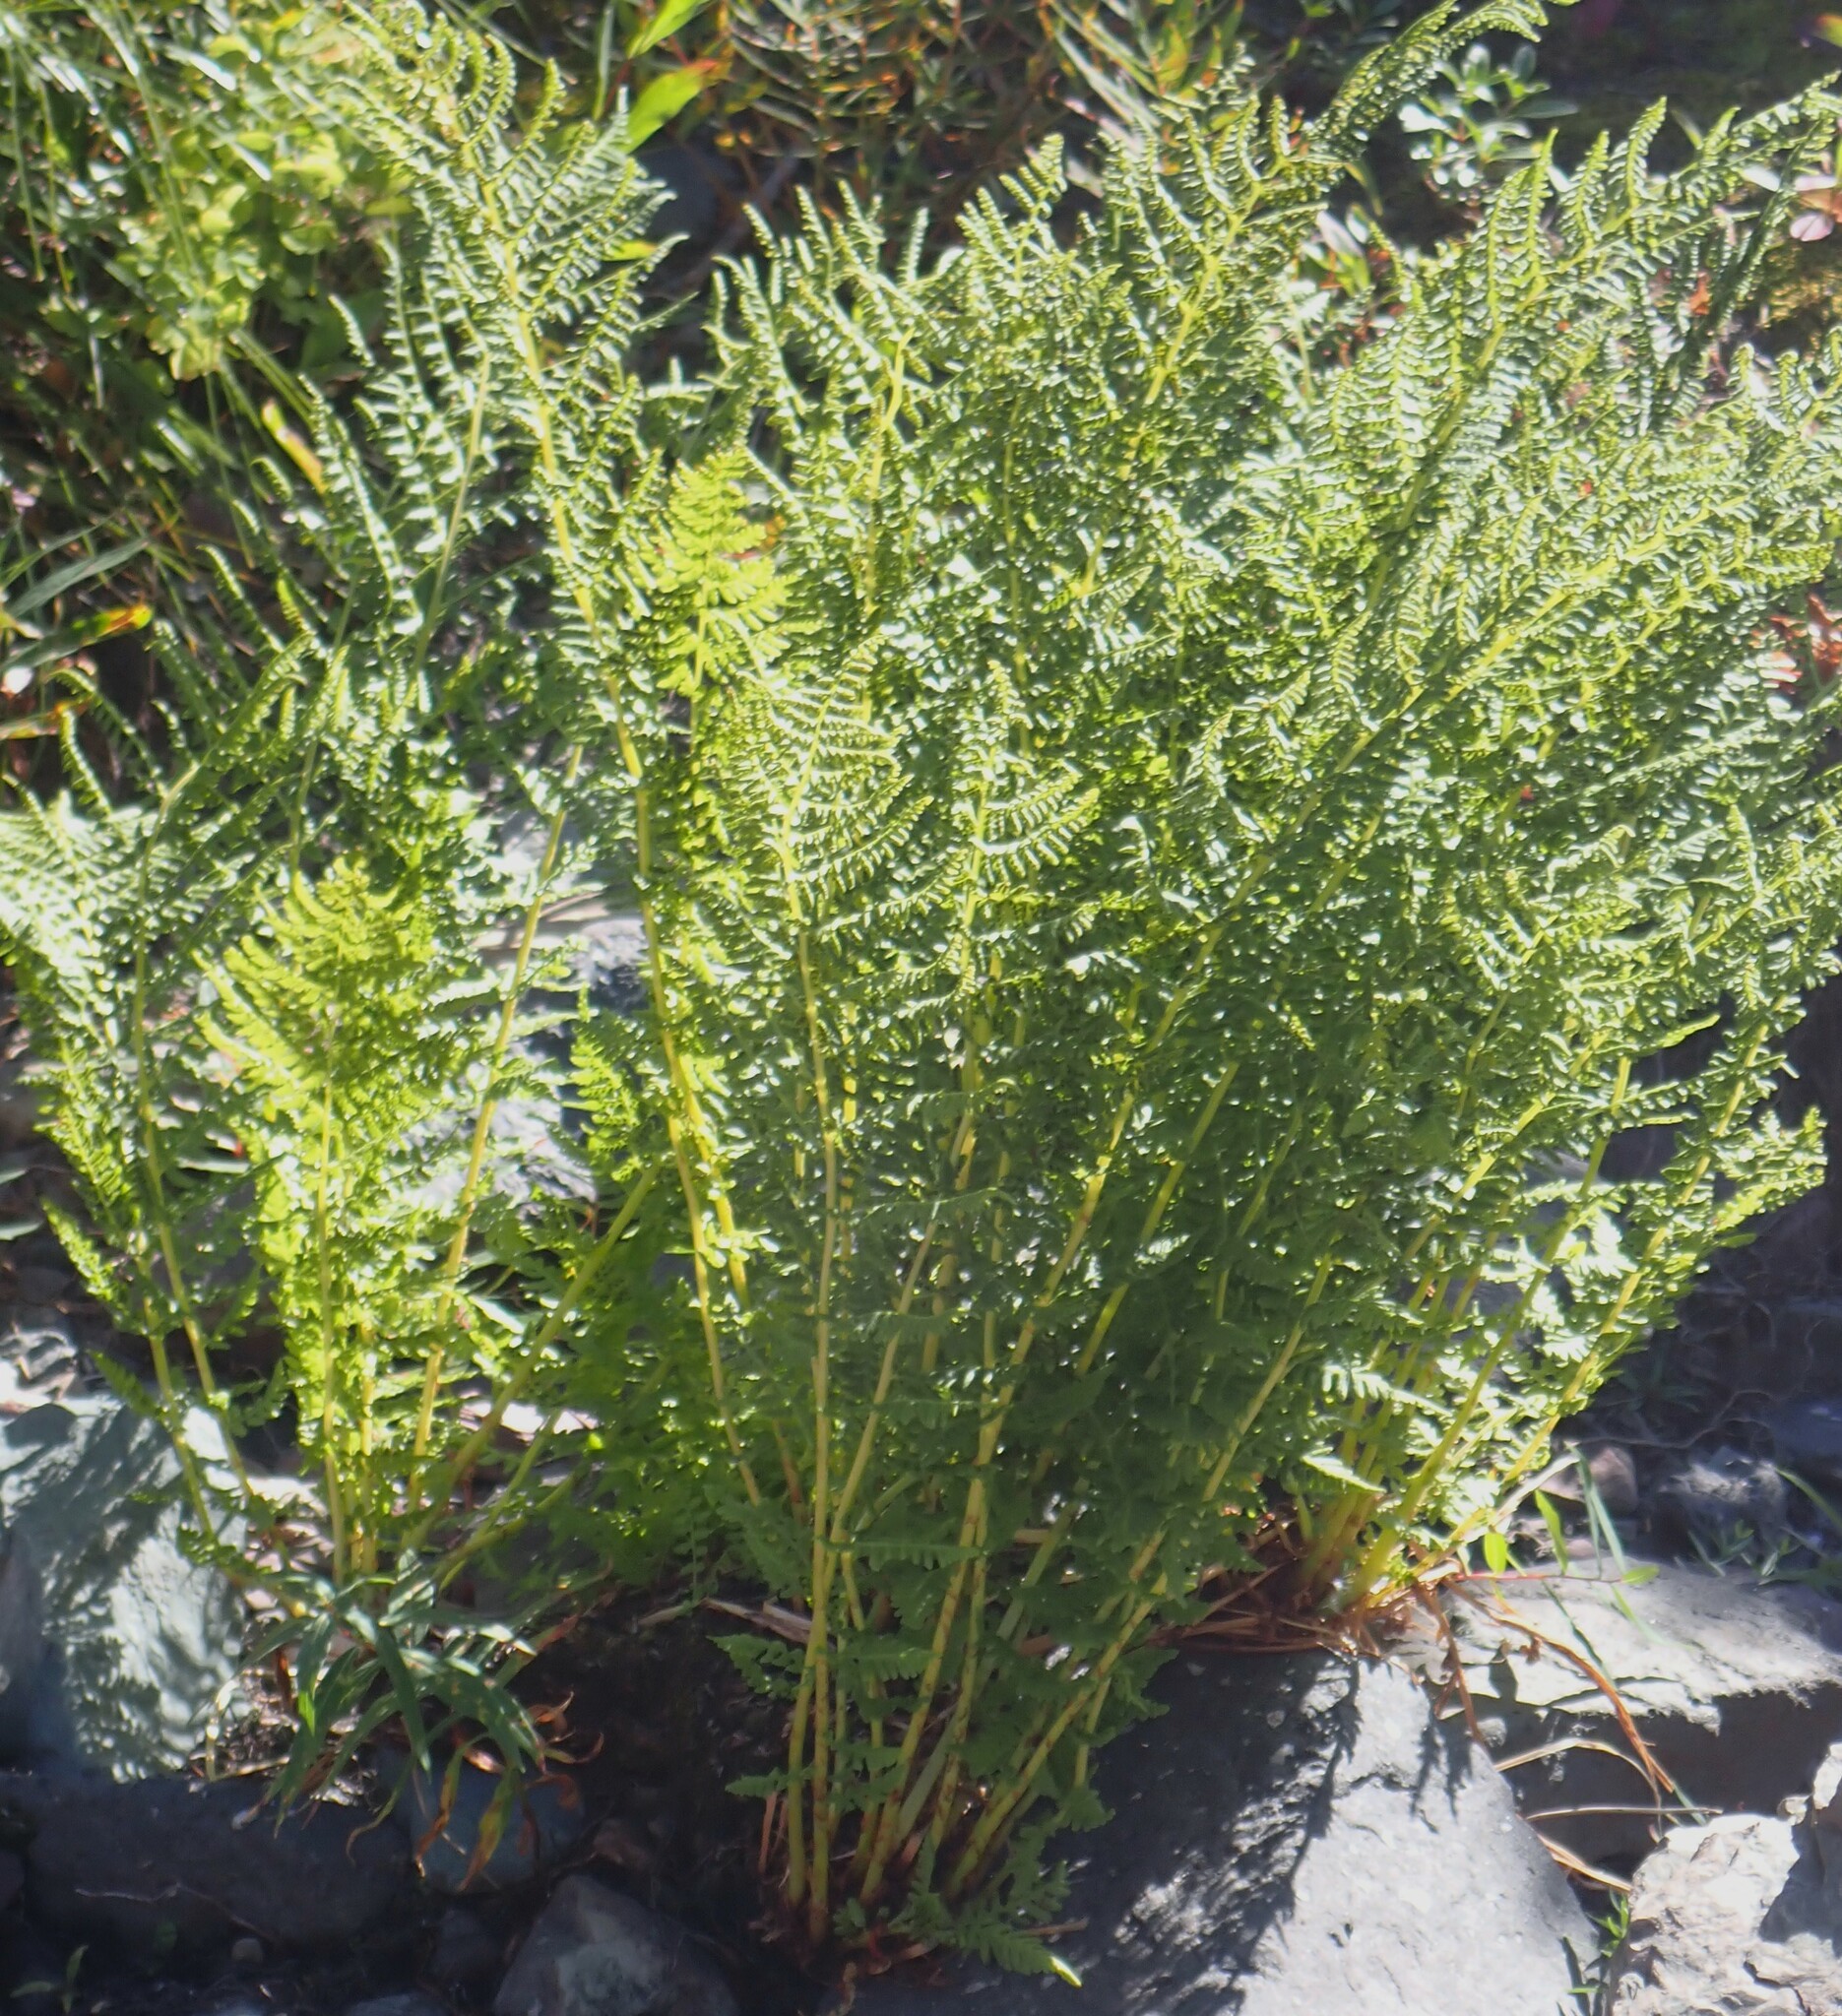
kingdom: Plantae
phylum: Tracheophyta
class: Polypodiopsida
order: Polypodiales
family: Athyriaceae
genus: Athyrium
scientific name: Athyrium filix-femina
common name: Lady fern
